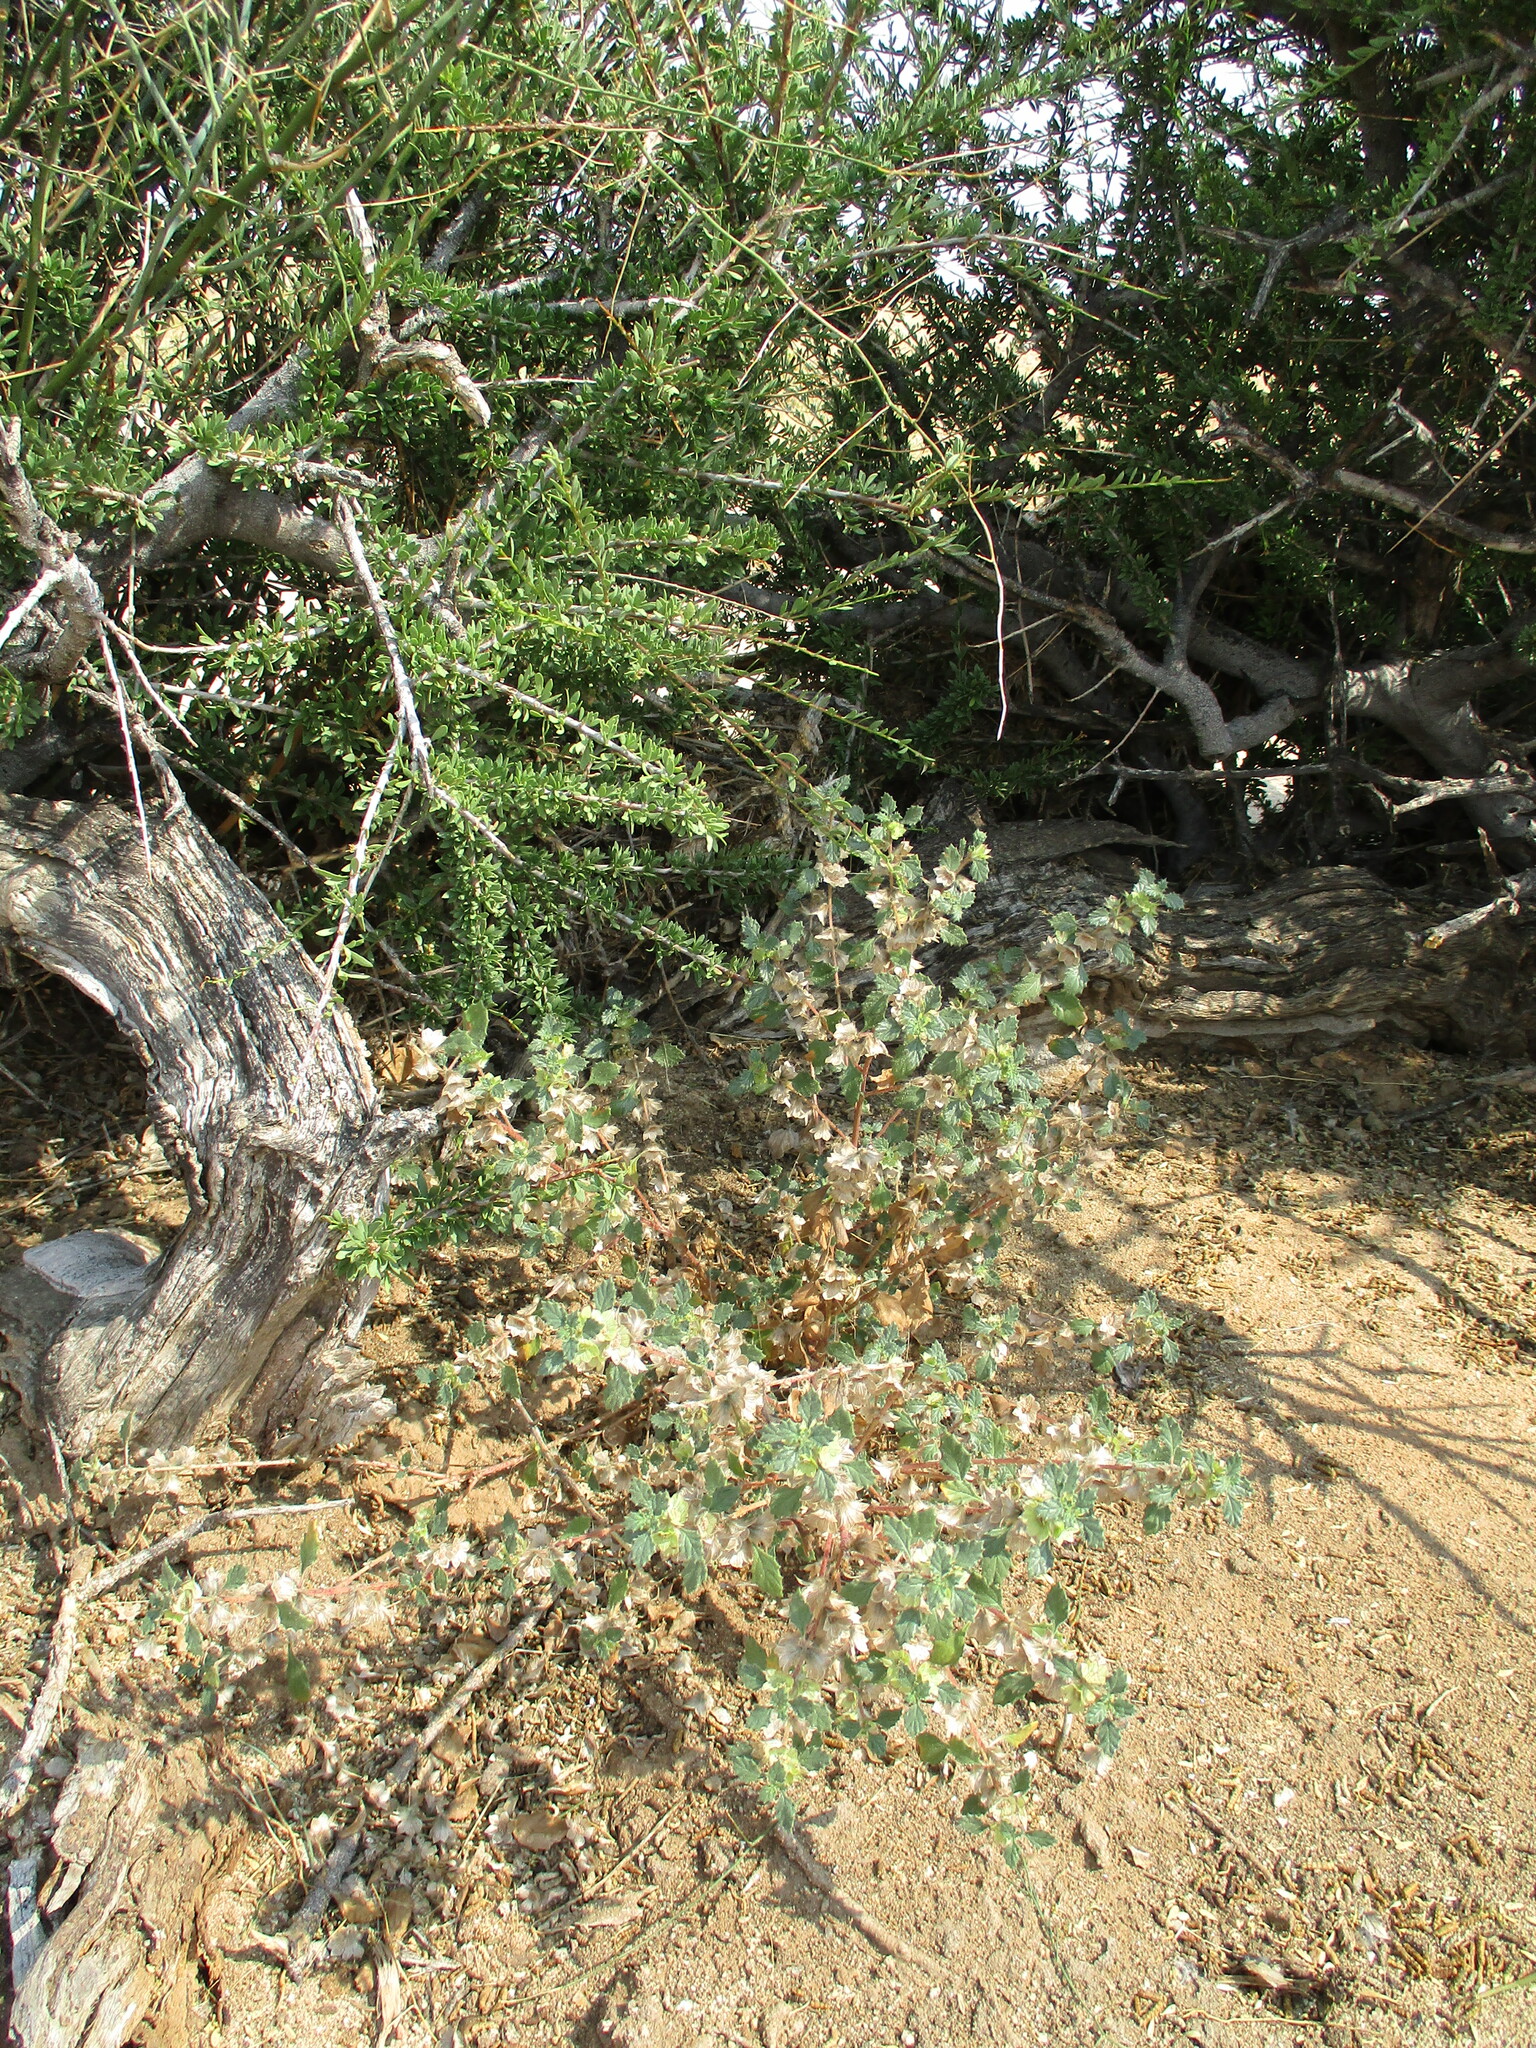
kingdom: Plantae
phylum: Tracheophyta
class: Magnoliopsida
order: Rosales
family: Urticaceae
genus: Forsskaolea
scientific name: Forsskaolea candida
